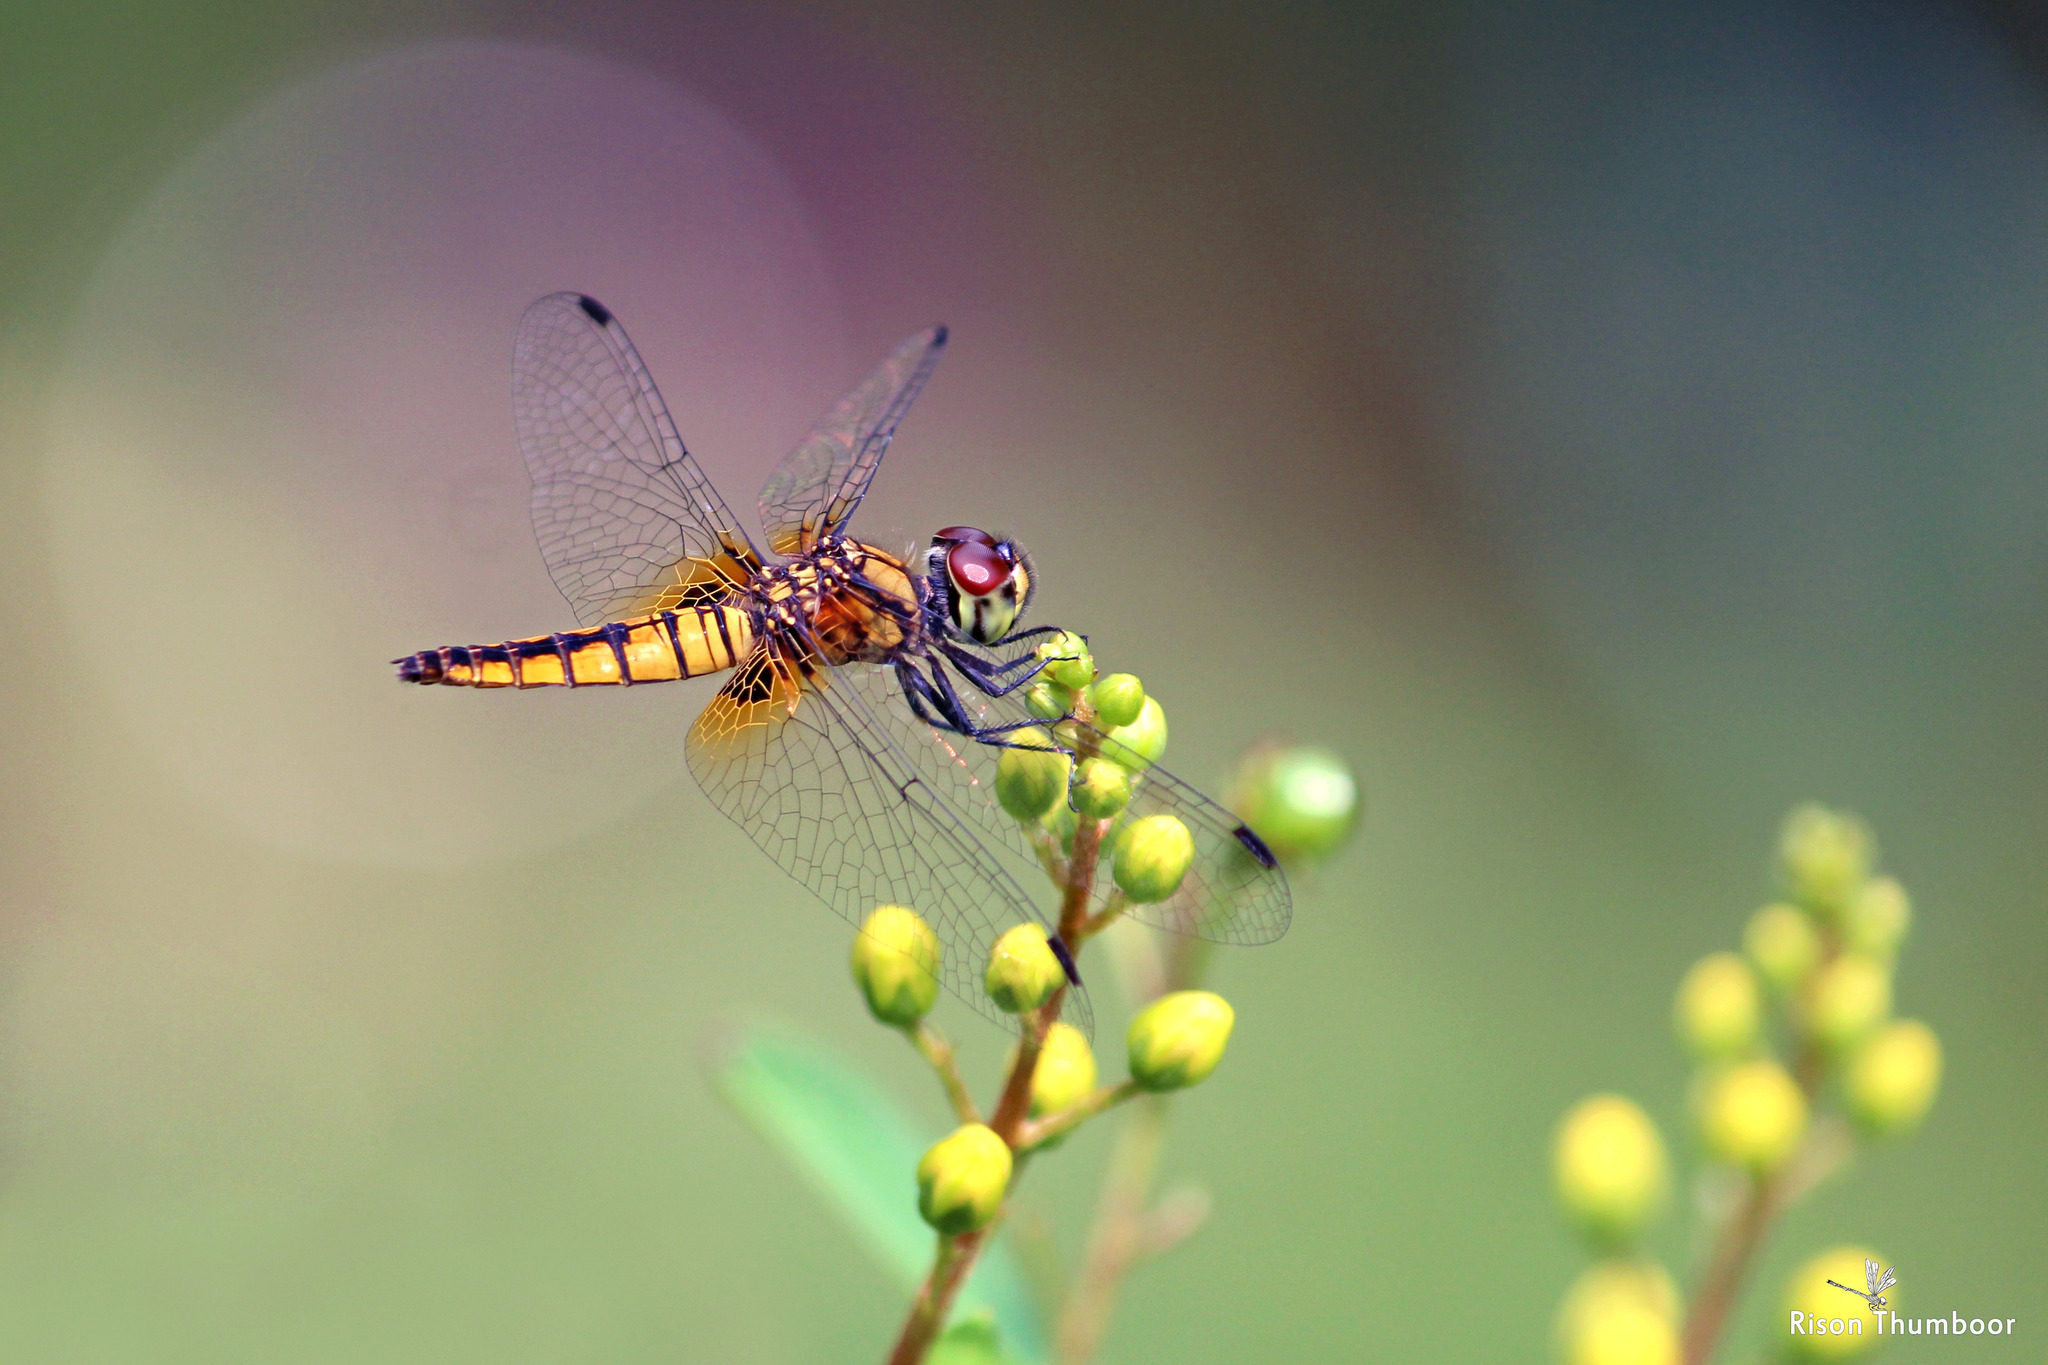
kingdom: Animalia
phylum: Arthropoda
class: Insecta
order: Odonata
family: Libellulidae
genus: Aethriamanta
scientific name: Aethriamanta brevipennis
